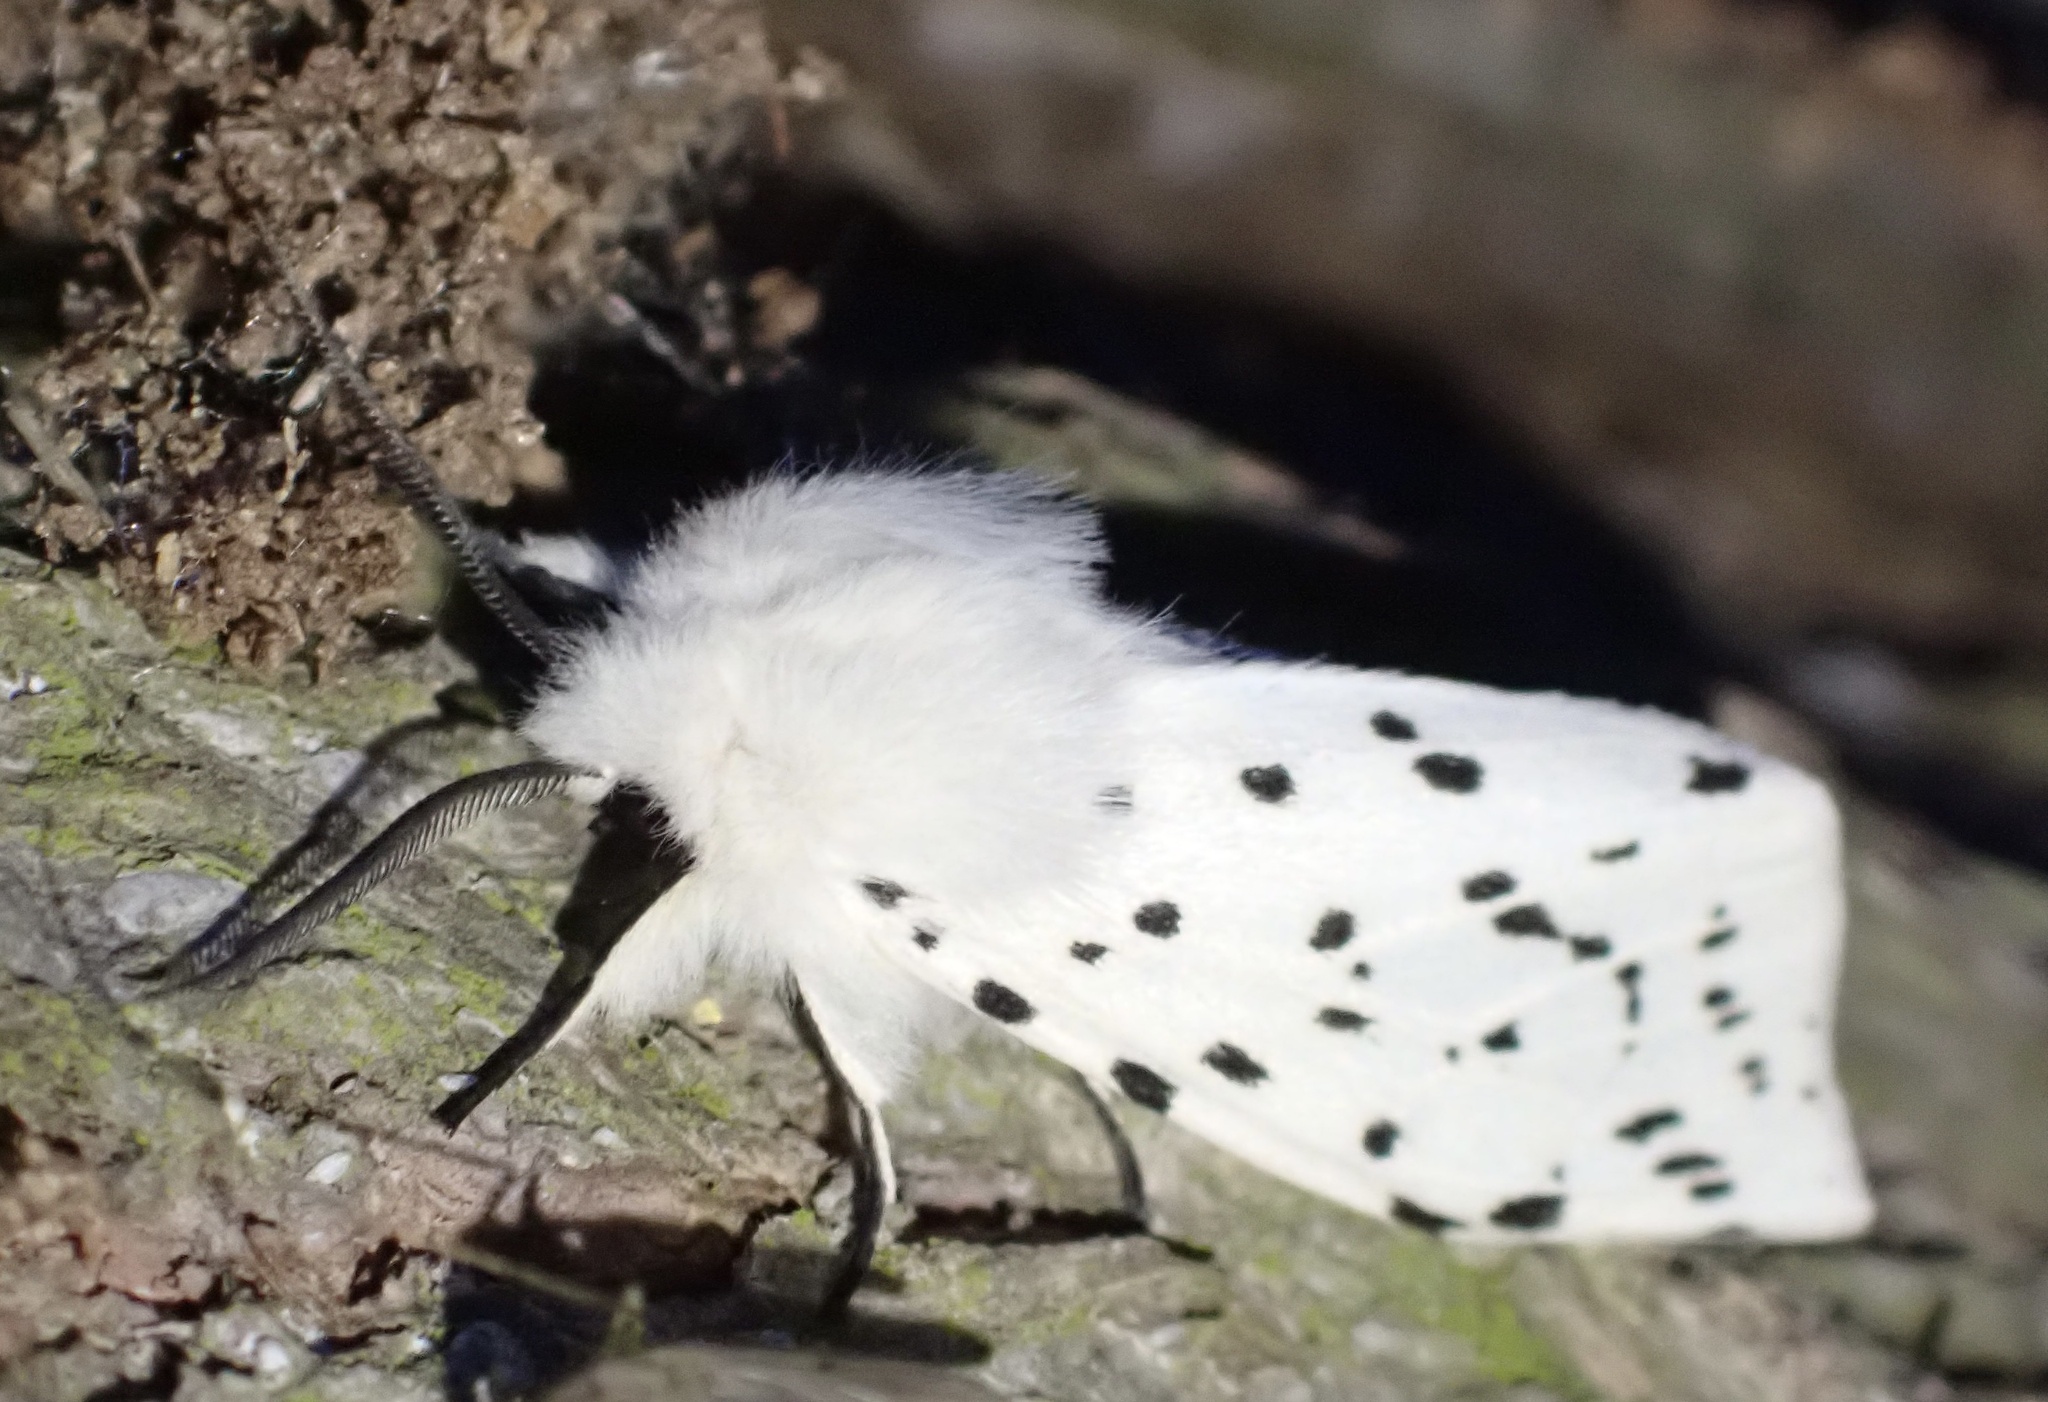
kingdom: Animalia
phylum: Arthropoda
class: Insecta
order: Lepidoptera
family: Erebidae
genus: Spilosoma
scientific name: Spilosoma lubricipeda
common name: White ermine
